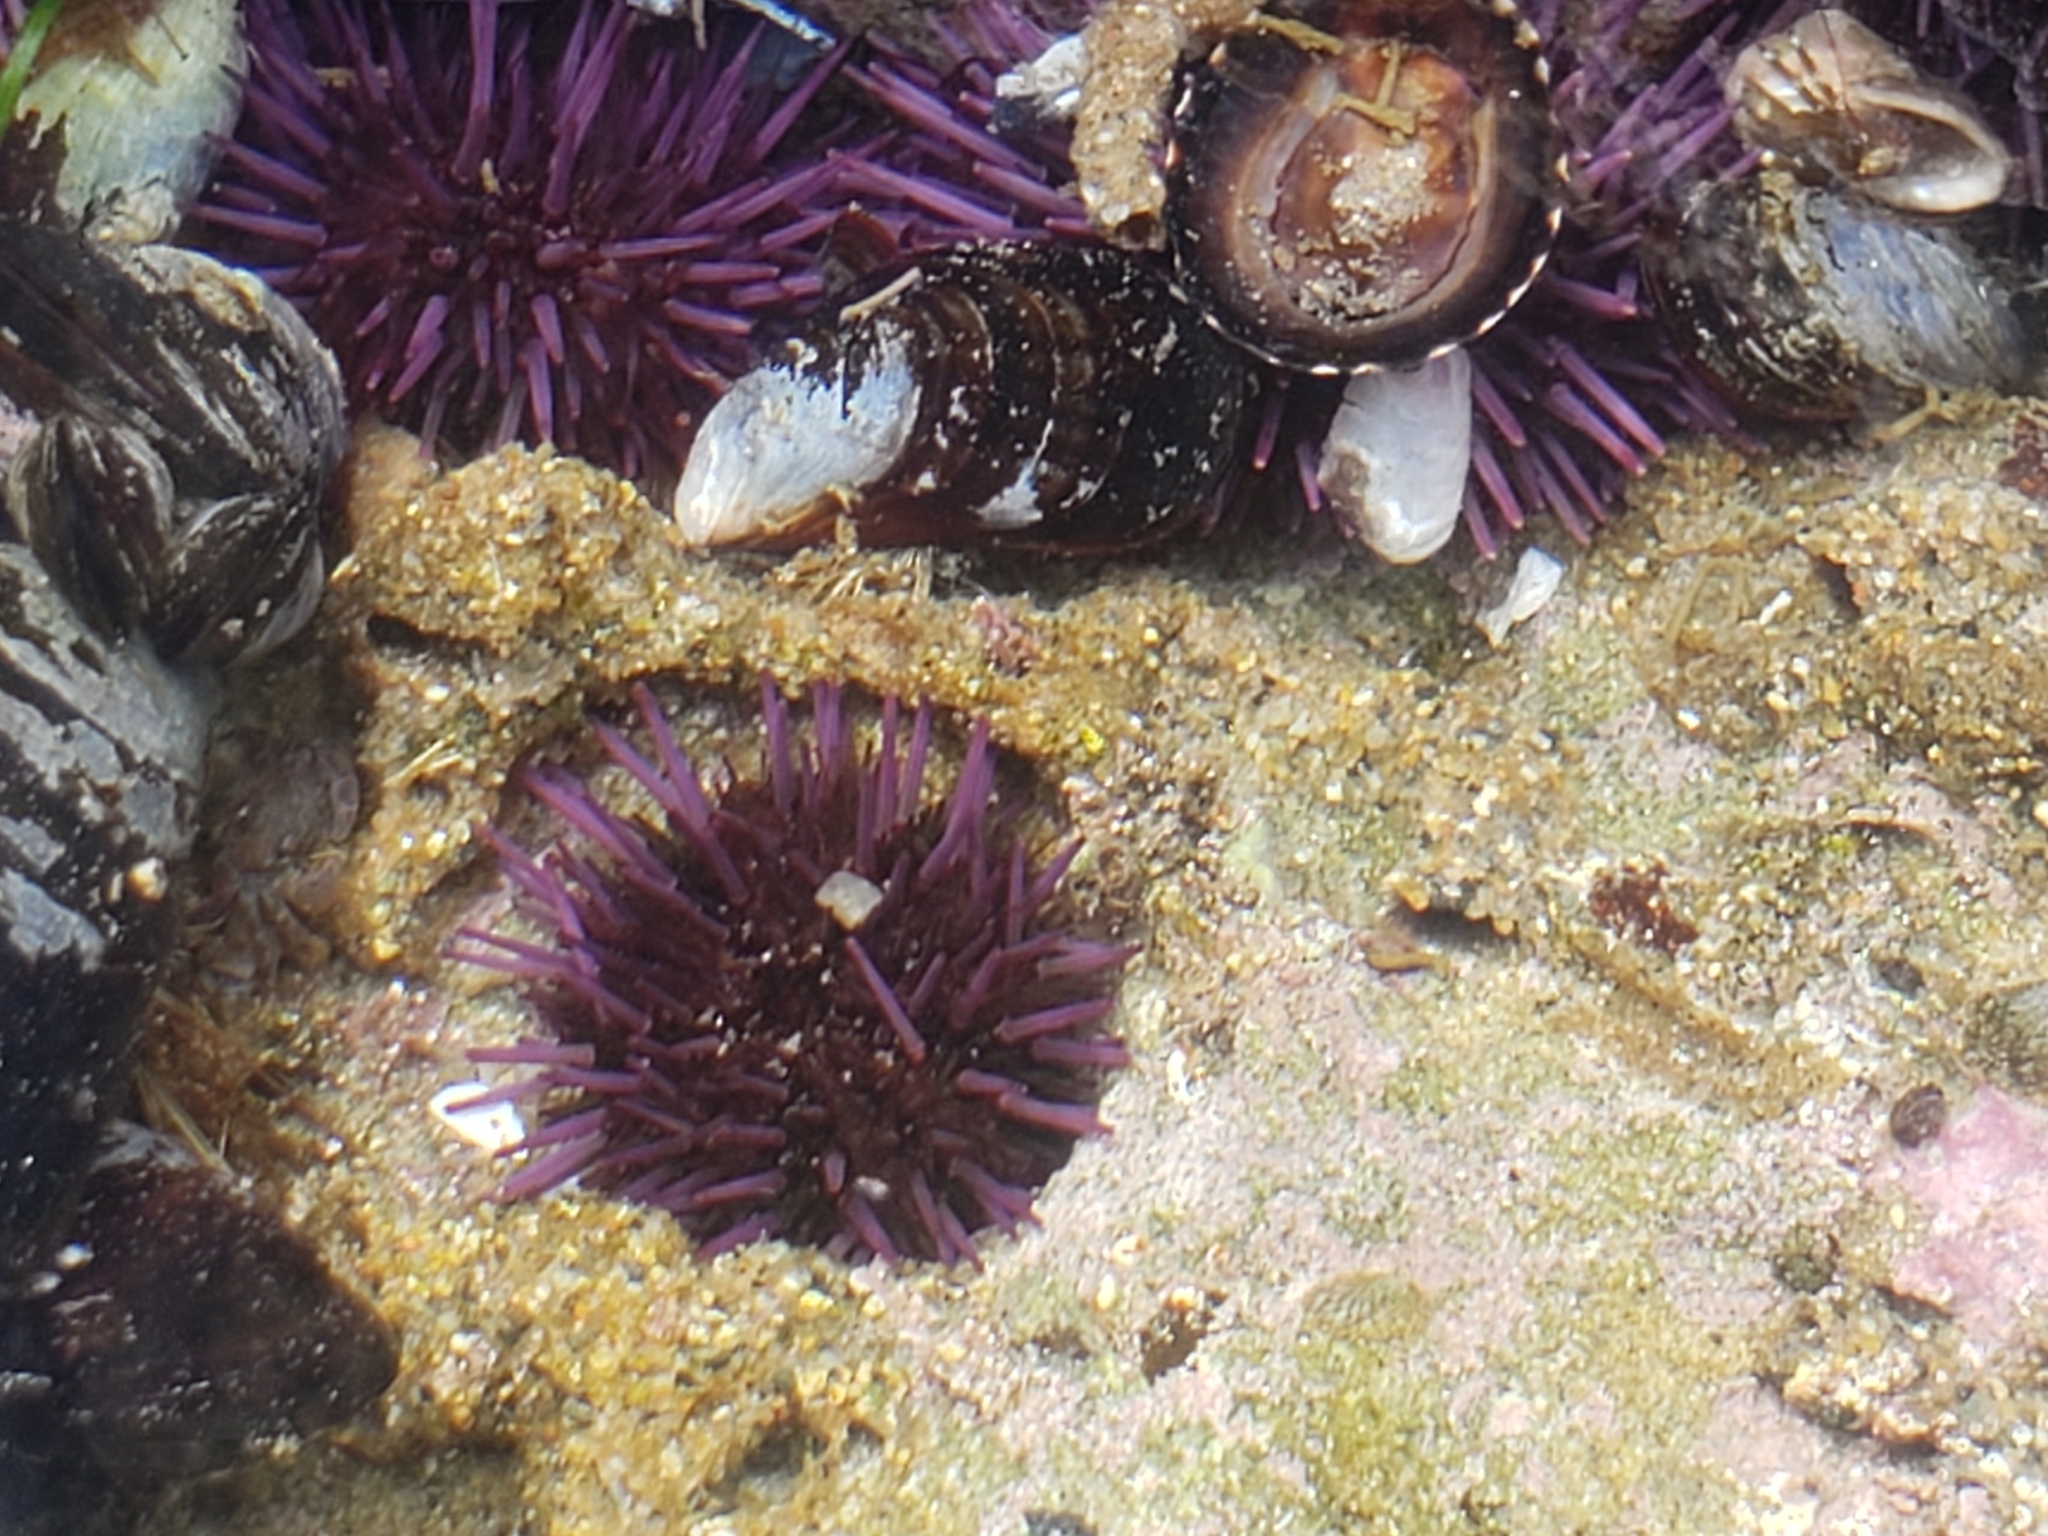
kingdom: Animalia
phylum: Echinodermata
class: Echinoidea
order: Camarodonta
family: Strongylocentrotidae
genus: Strongylocentrotus
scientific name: Strongylocentrotus purpuratus
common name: Purple sea urchin
